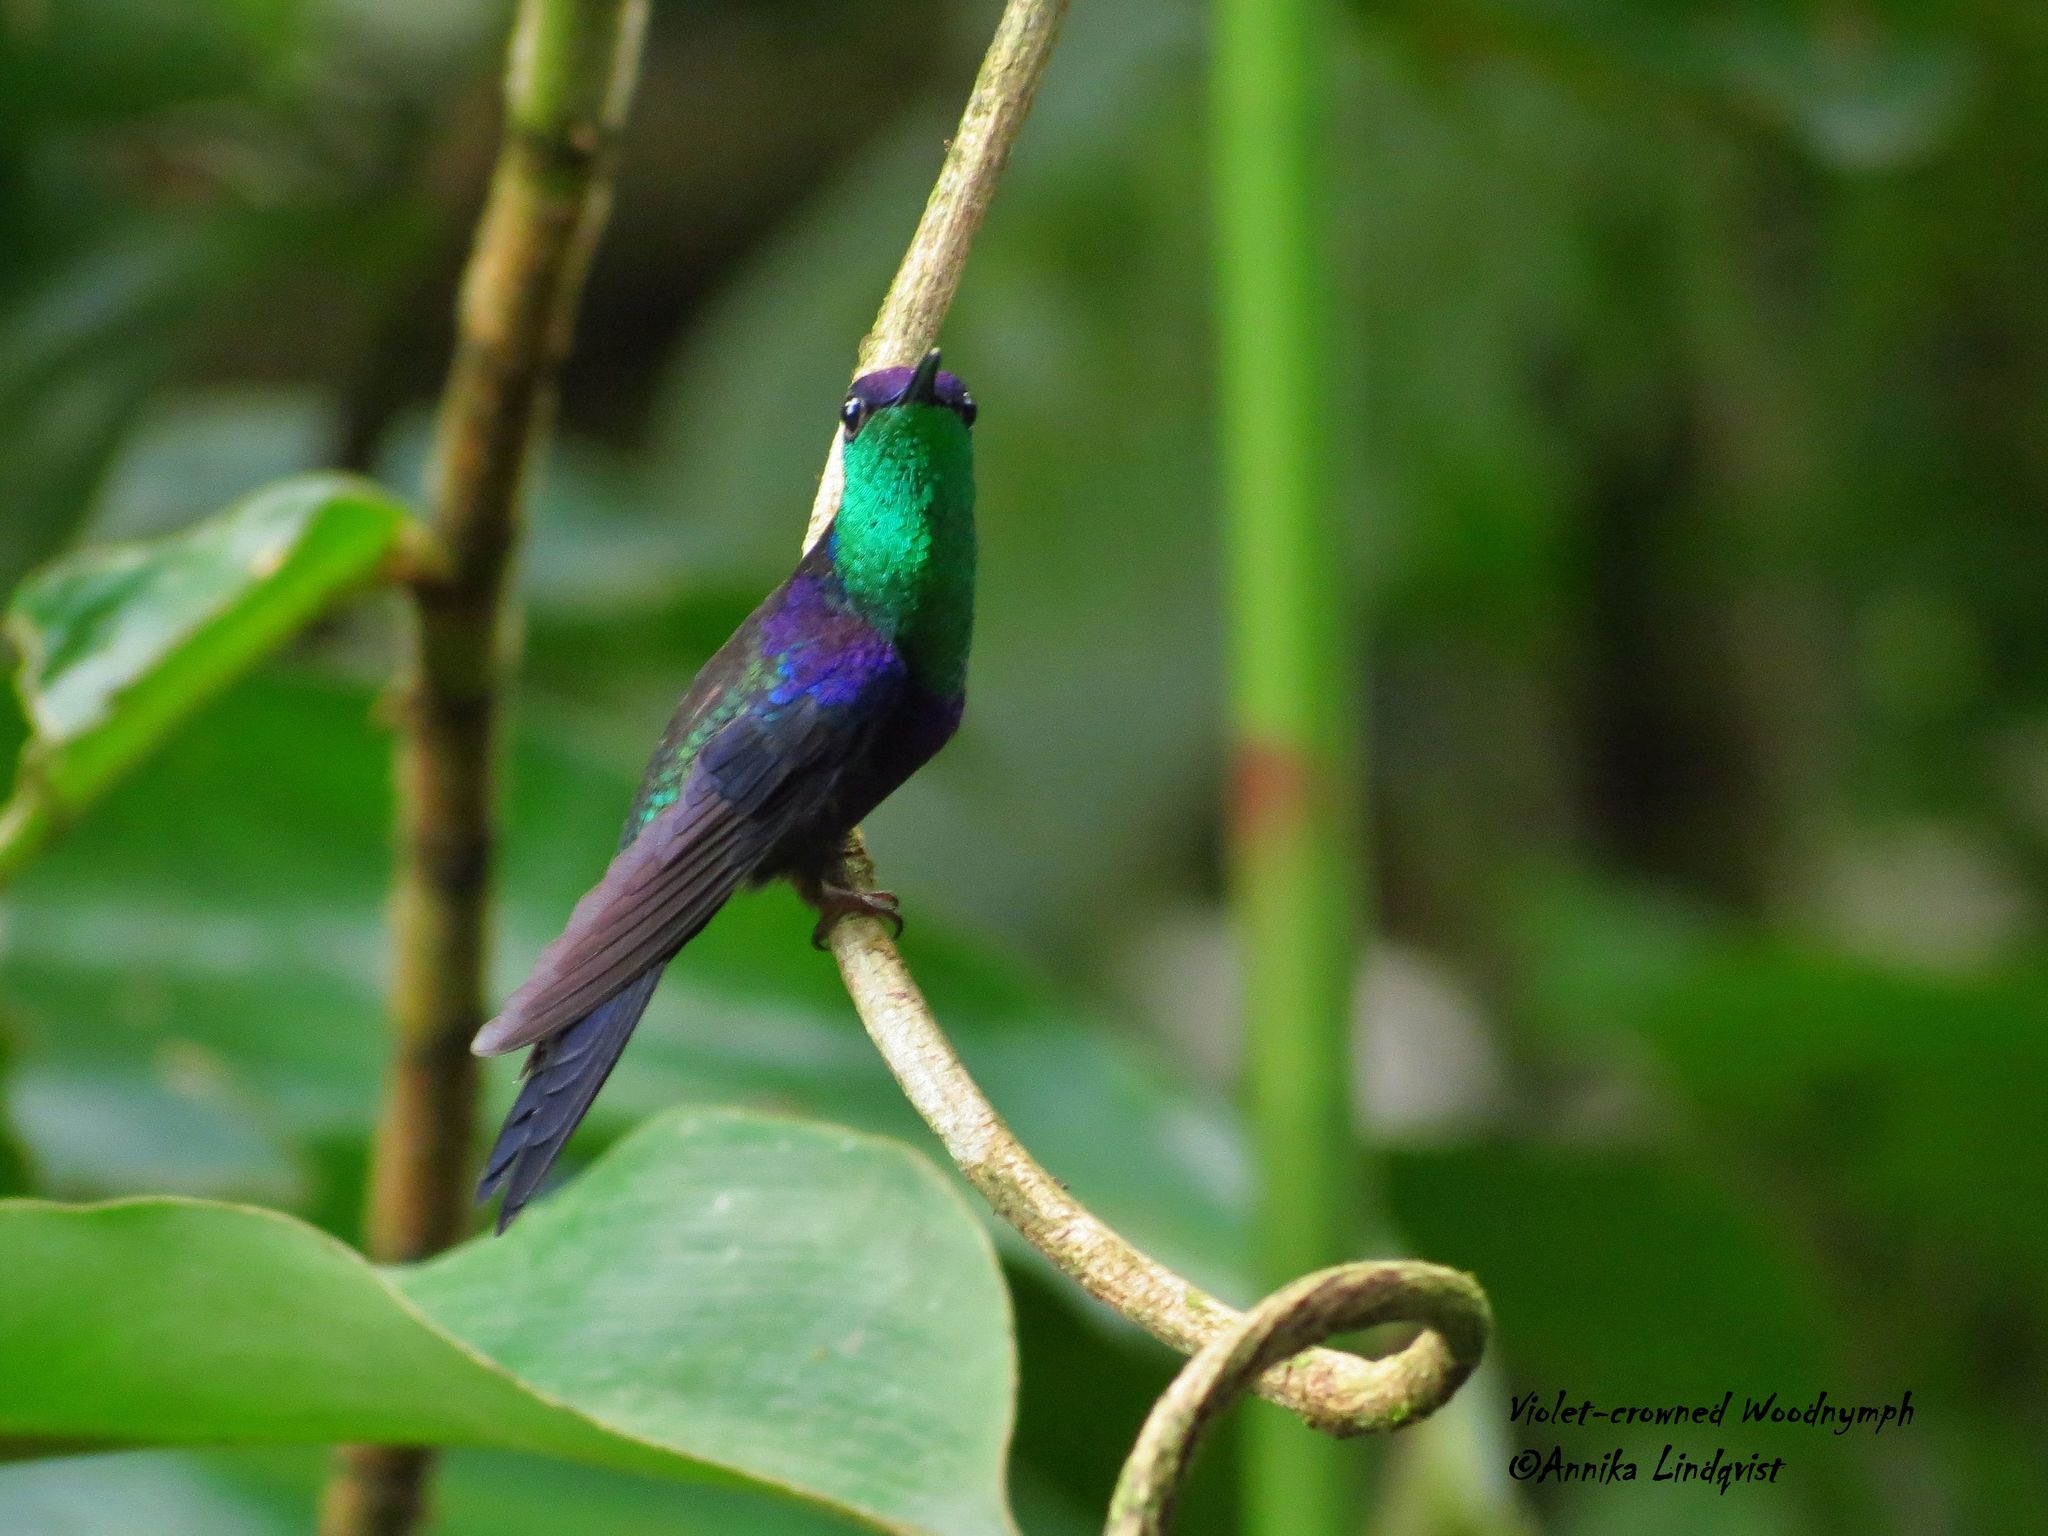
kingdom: Animalia
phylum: Chordata
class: Aves
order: Apodiformes
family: Trochilidae
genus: Thalurania
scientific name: Thalurania colombica
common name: Crowned woodnymph
